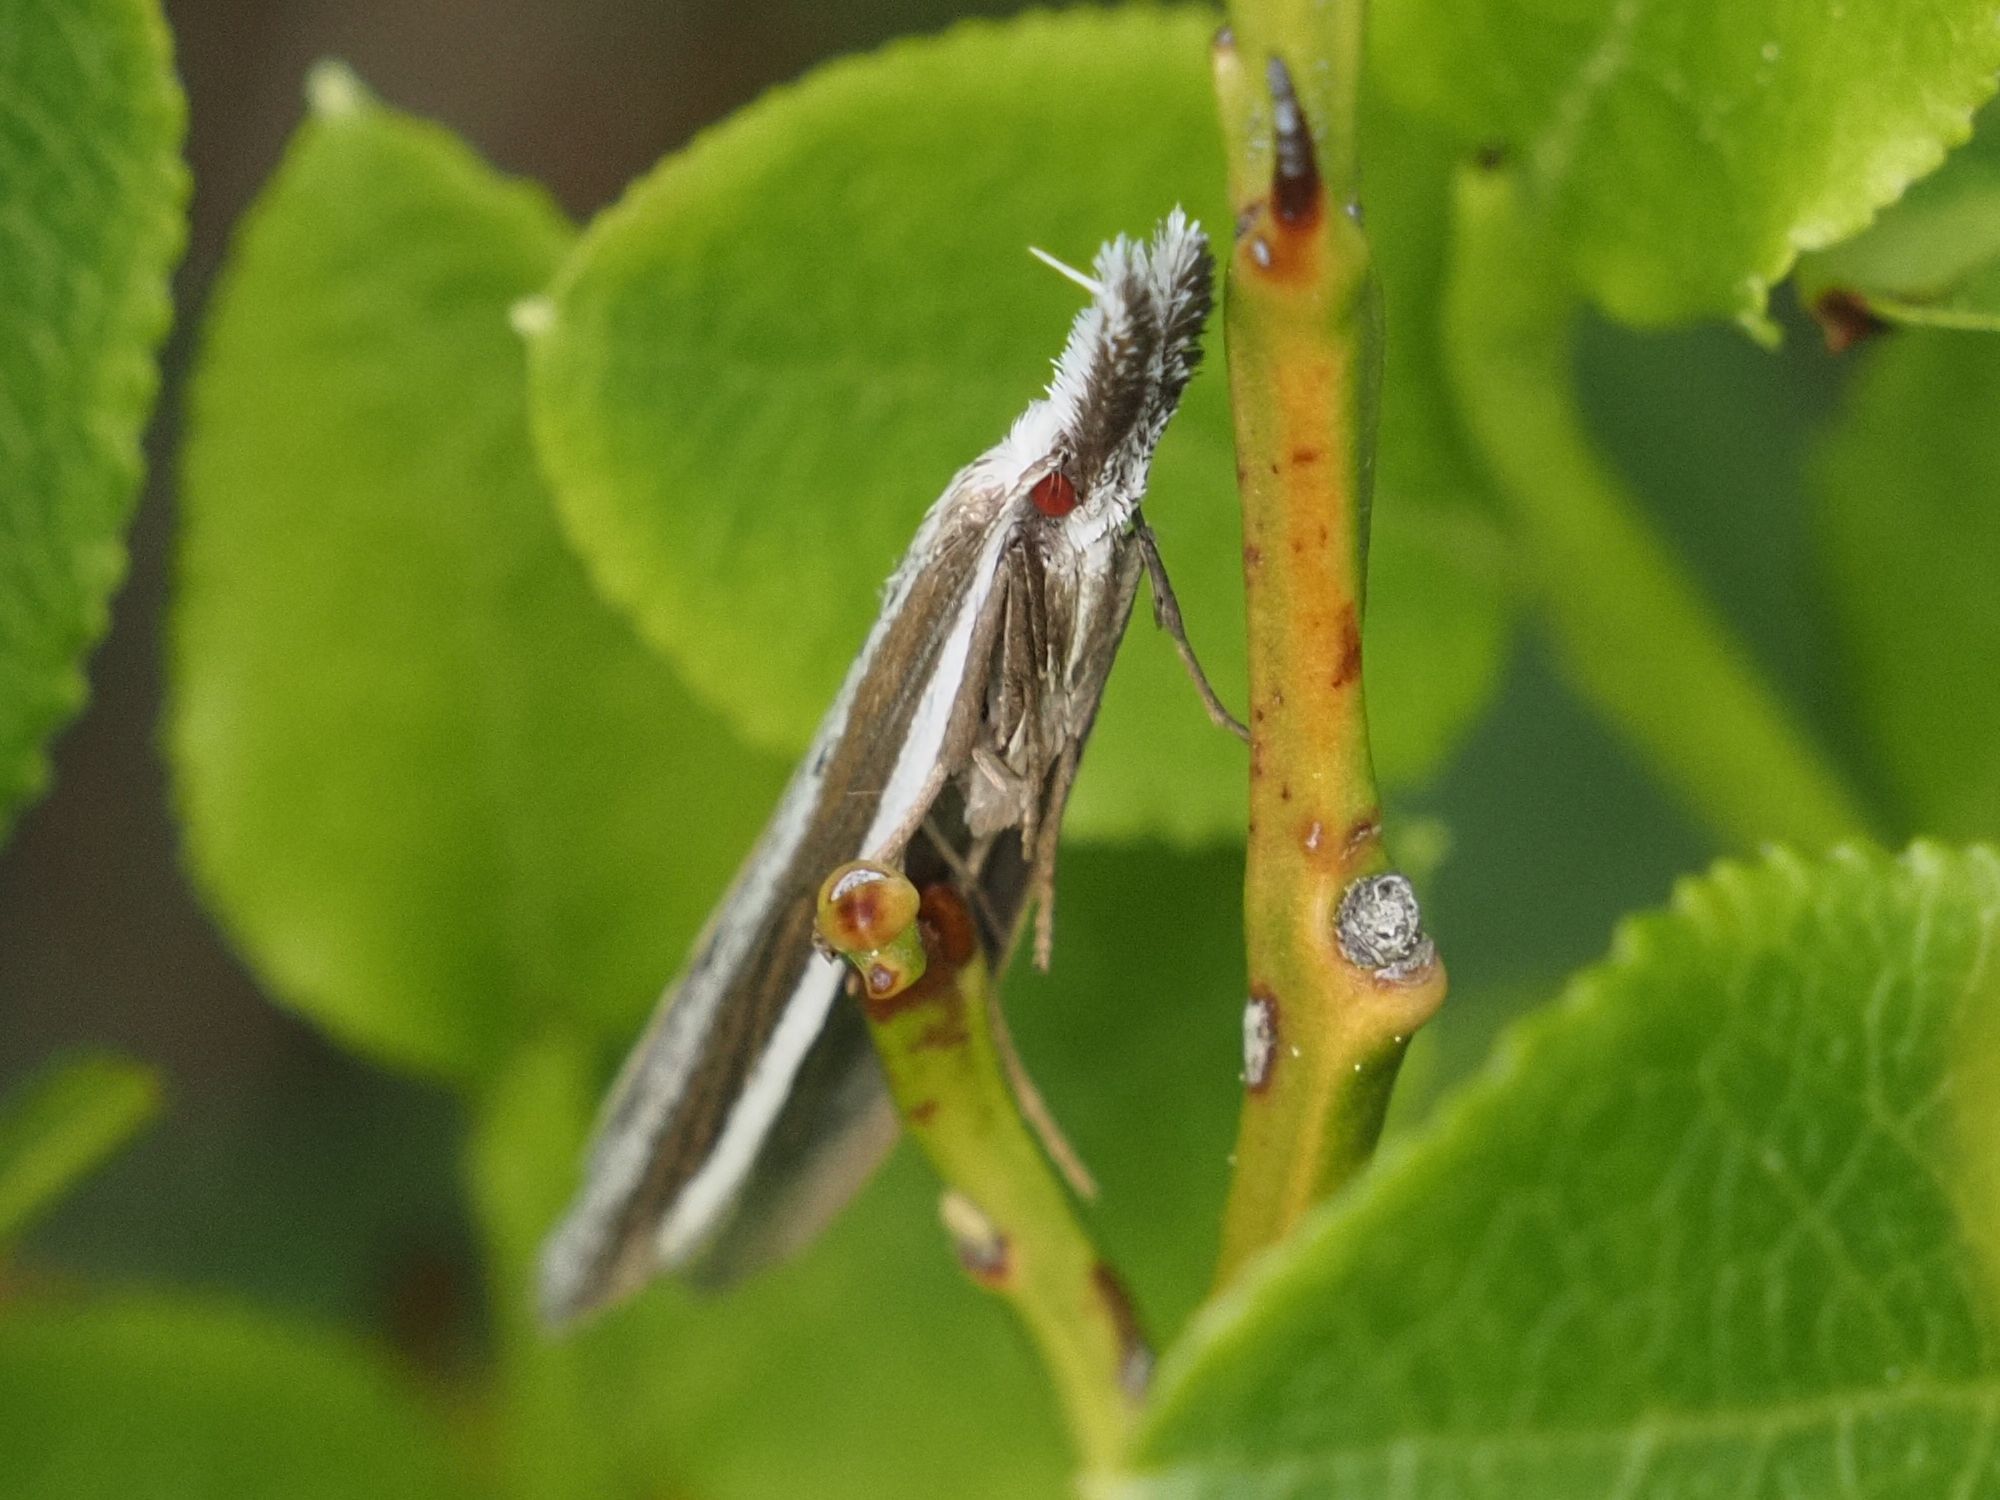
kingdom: Animalia
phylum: Arthropoda
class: Insecta
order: Lepidoptera
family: Oecophoridae
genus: Pleurota
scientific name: Pleurota bicostella
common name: Light streak
